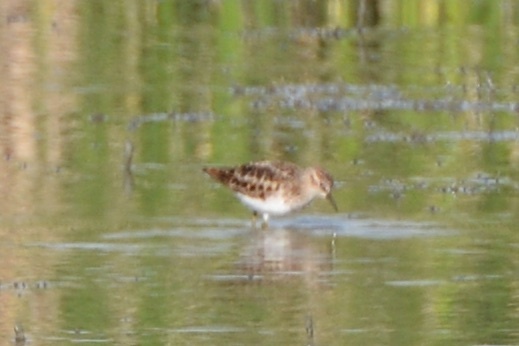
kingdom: Animalia
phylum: Chordata
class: Aves
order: Charadriiformes
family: Scolopacidae
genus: Calidris
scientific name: Calidris minutilla
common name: Least sandpiper
